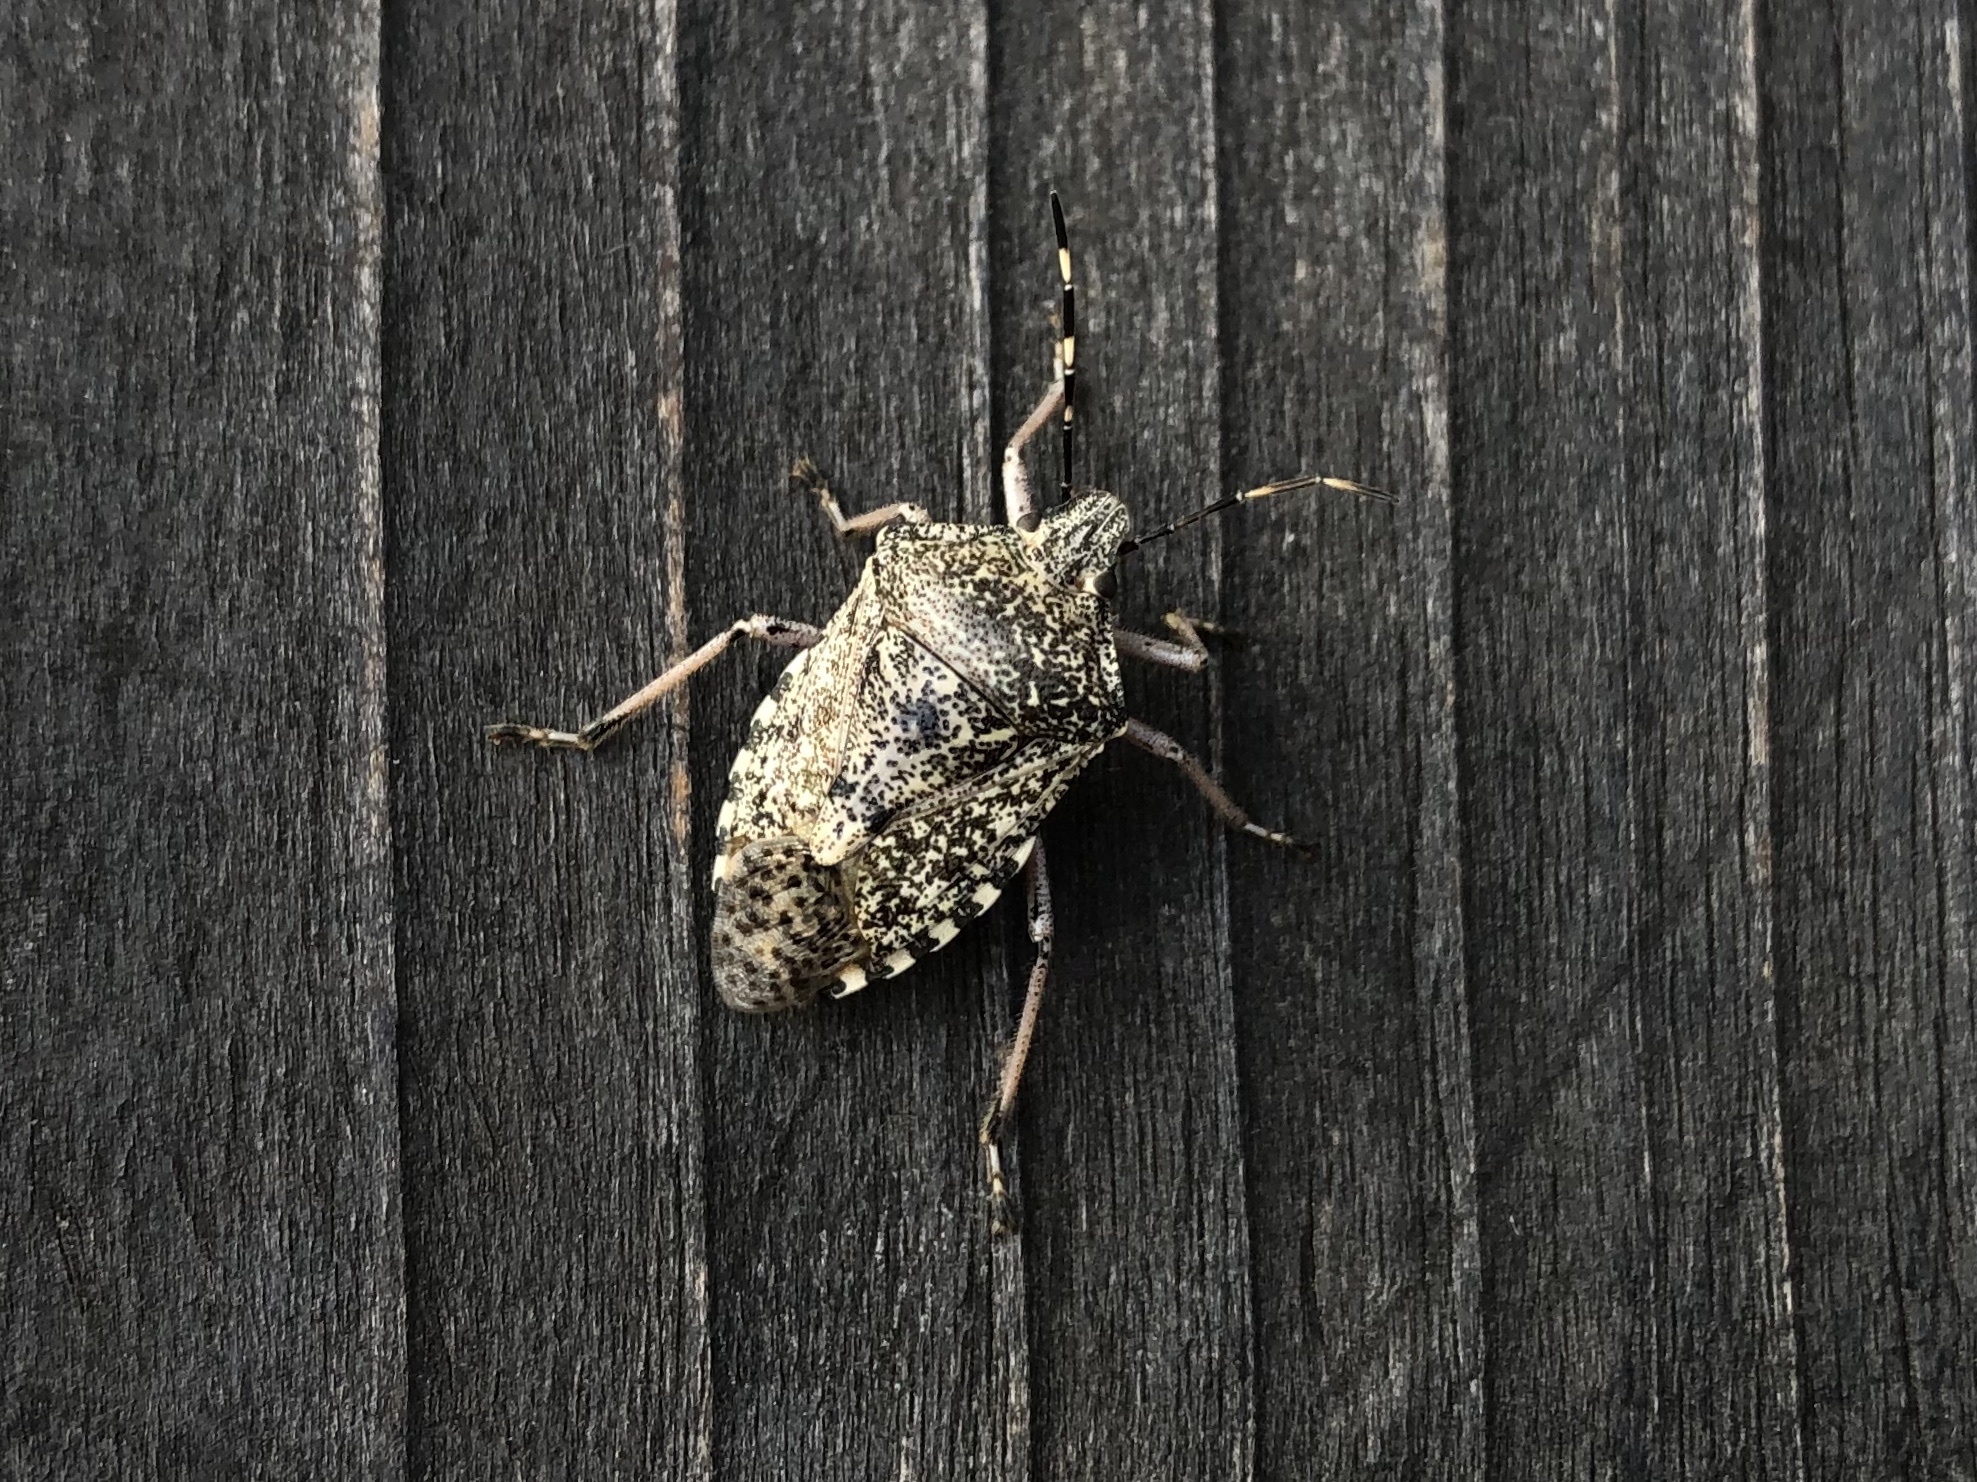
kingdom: Animalia
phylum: Arthropoda
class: Insecta
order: Hemiptera
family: Pentatomidae
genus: Rhaphigaster
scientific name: Rhaphigaster nebulosa
